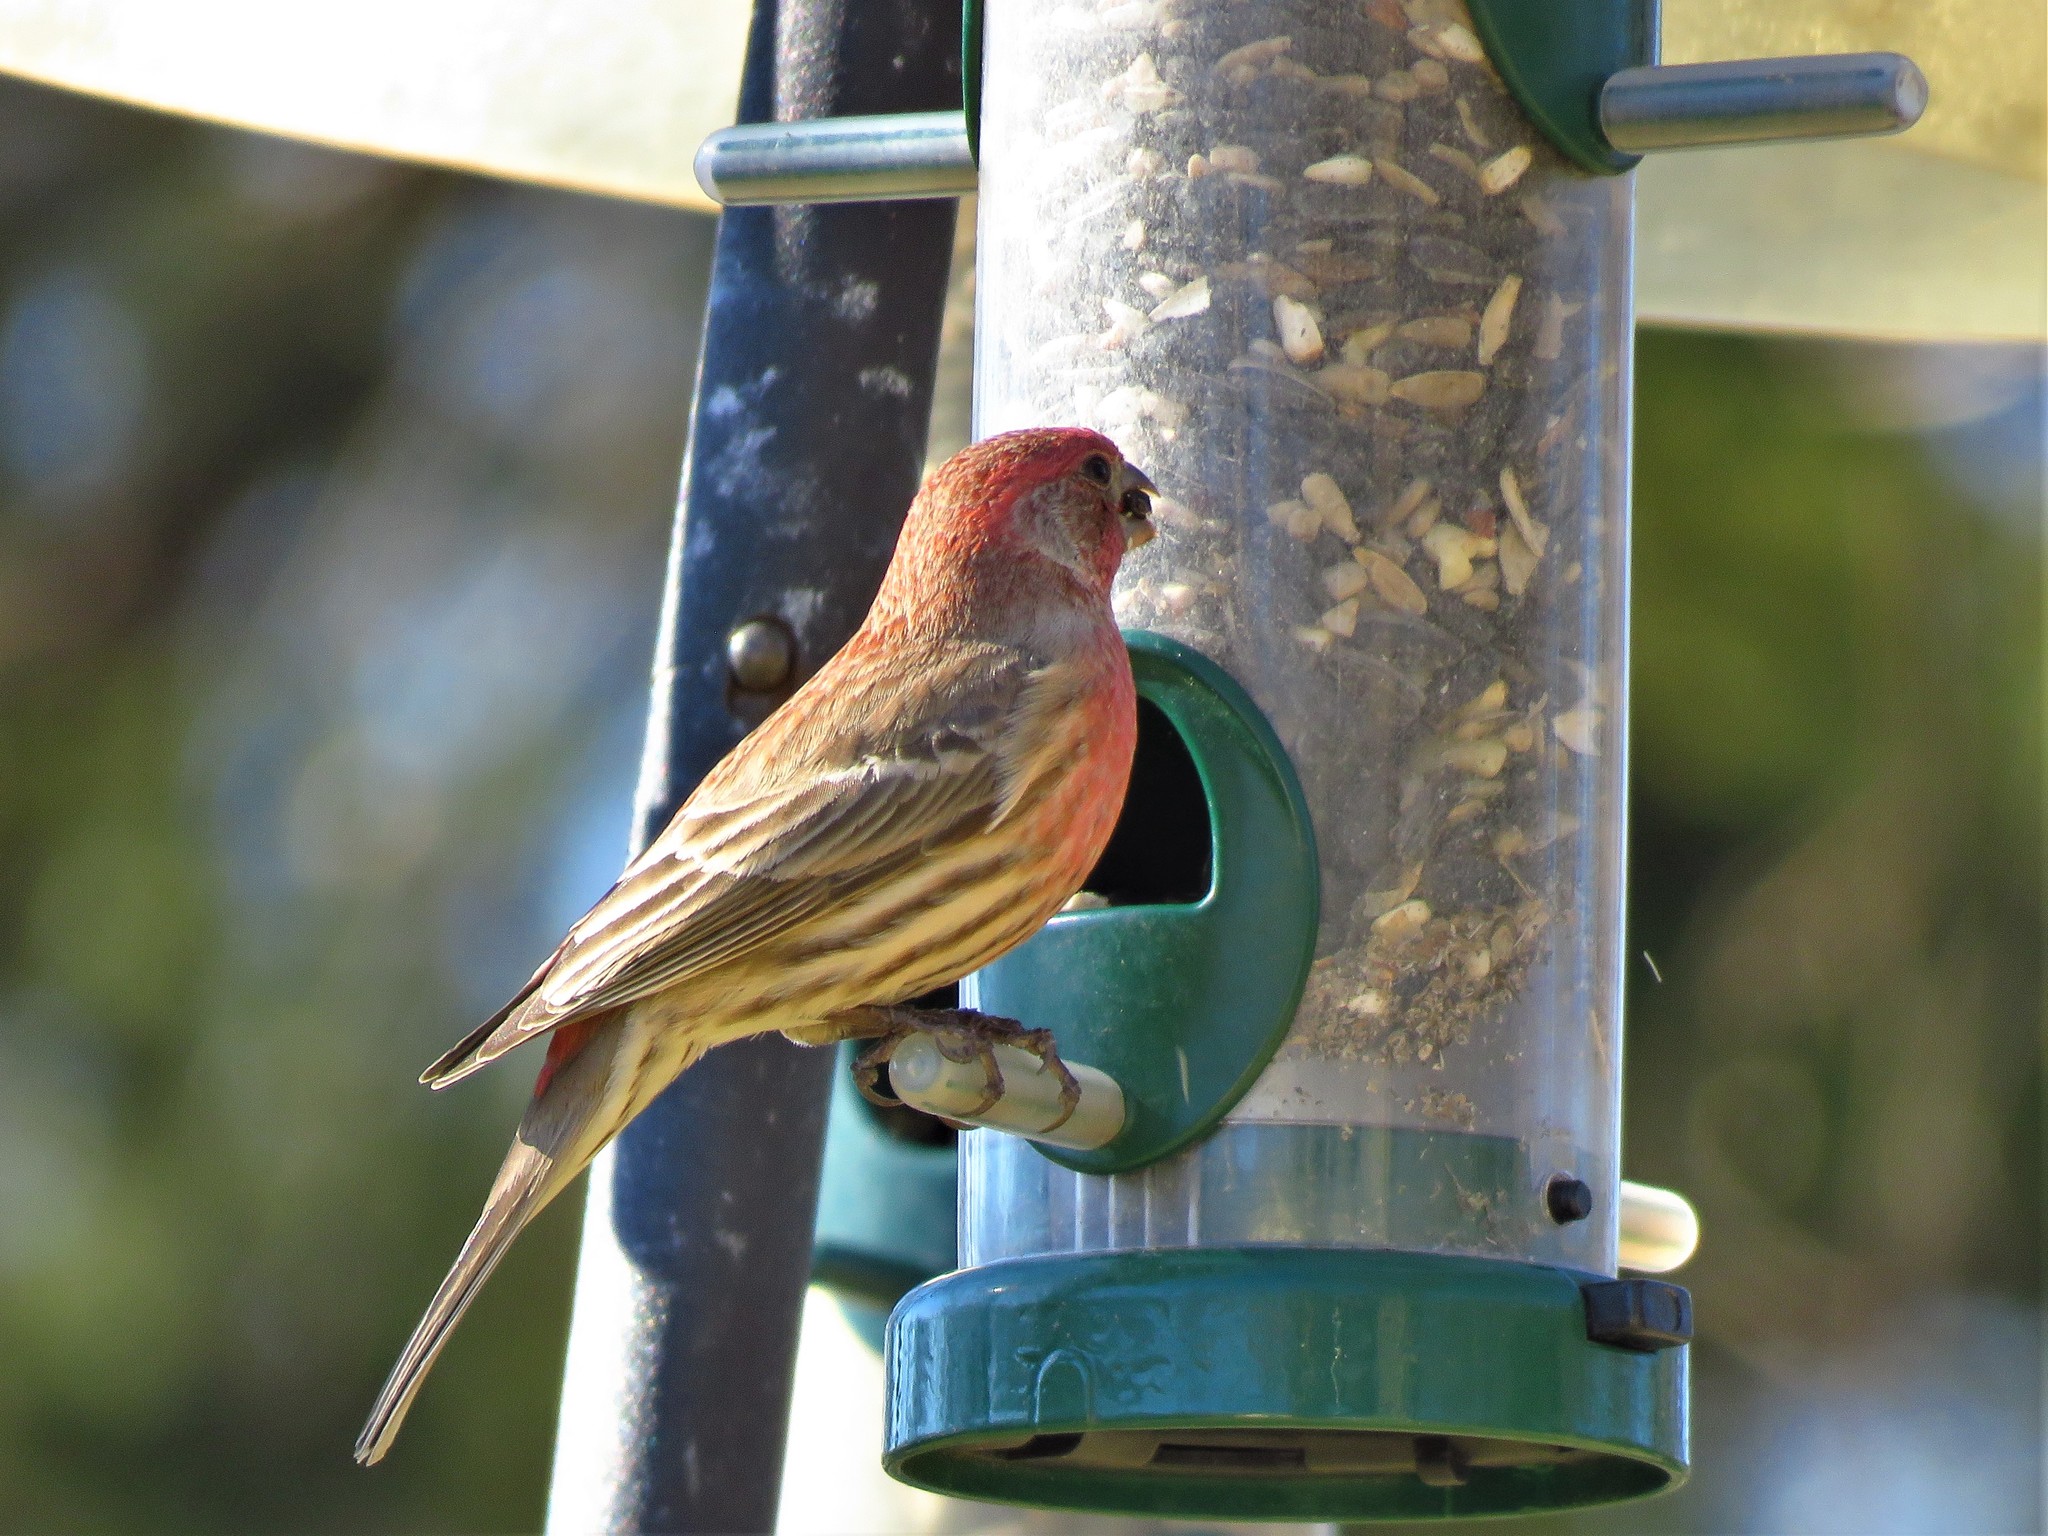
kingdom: Animalia
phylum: Chordata
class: Aves
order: Passeriformes
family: Fringillidae
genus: Haemorhous
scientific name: Haemorhous mexicanus
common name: House finch
